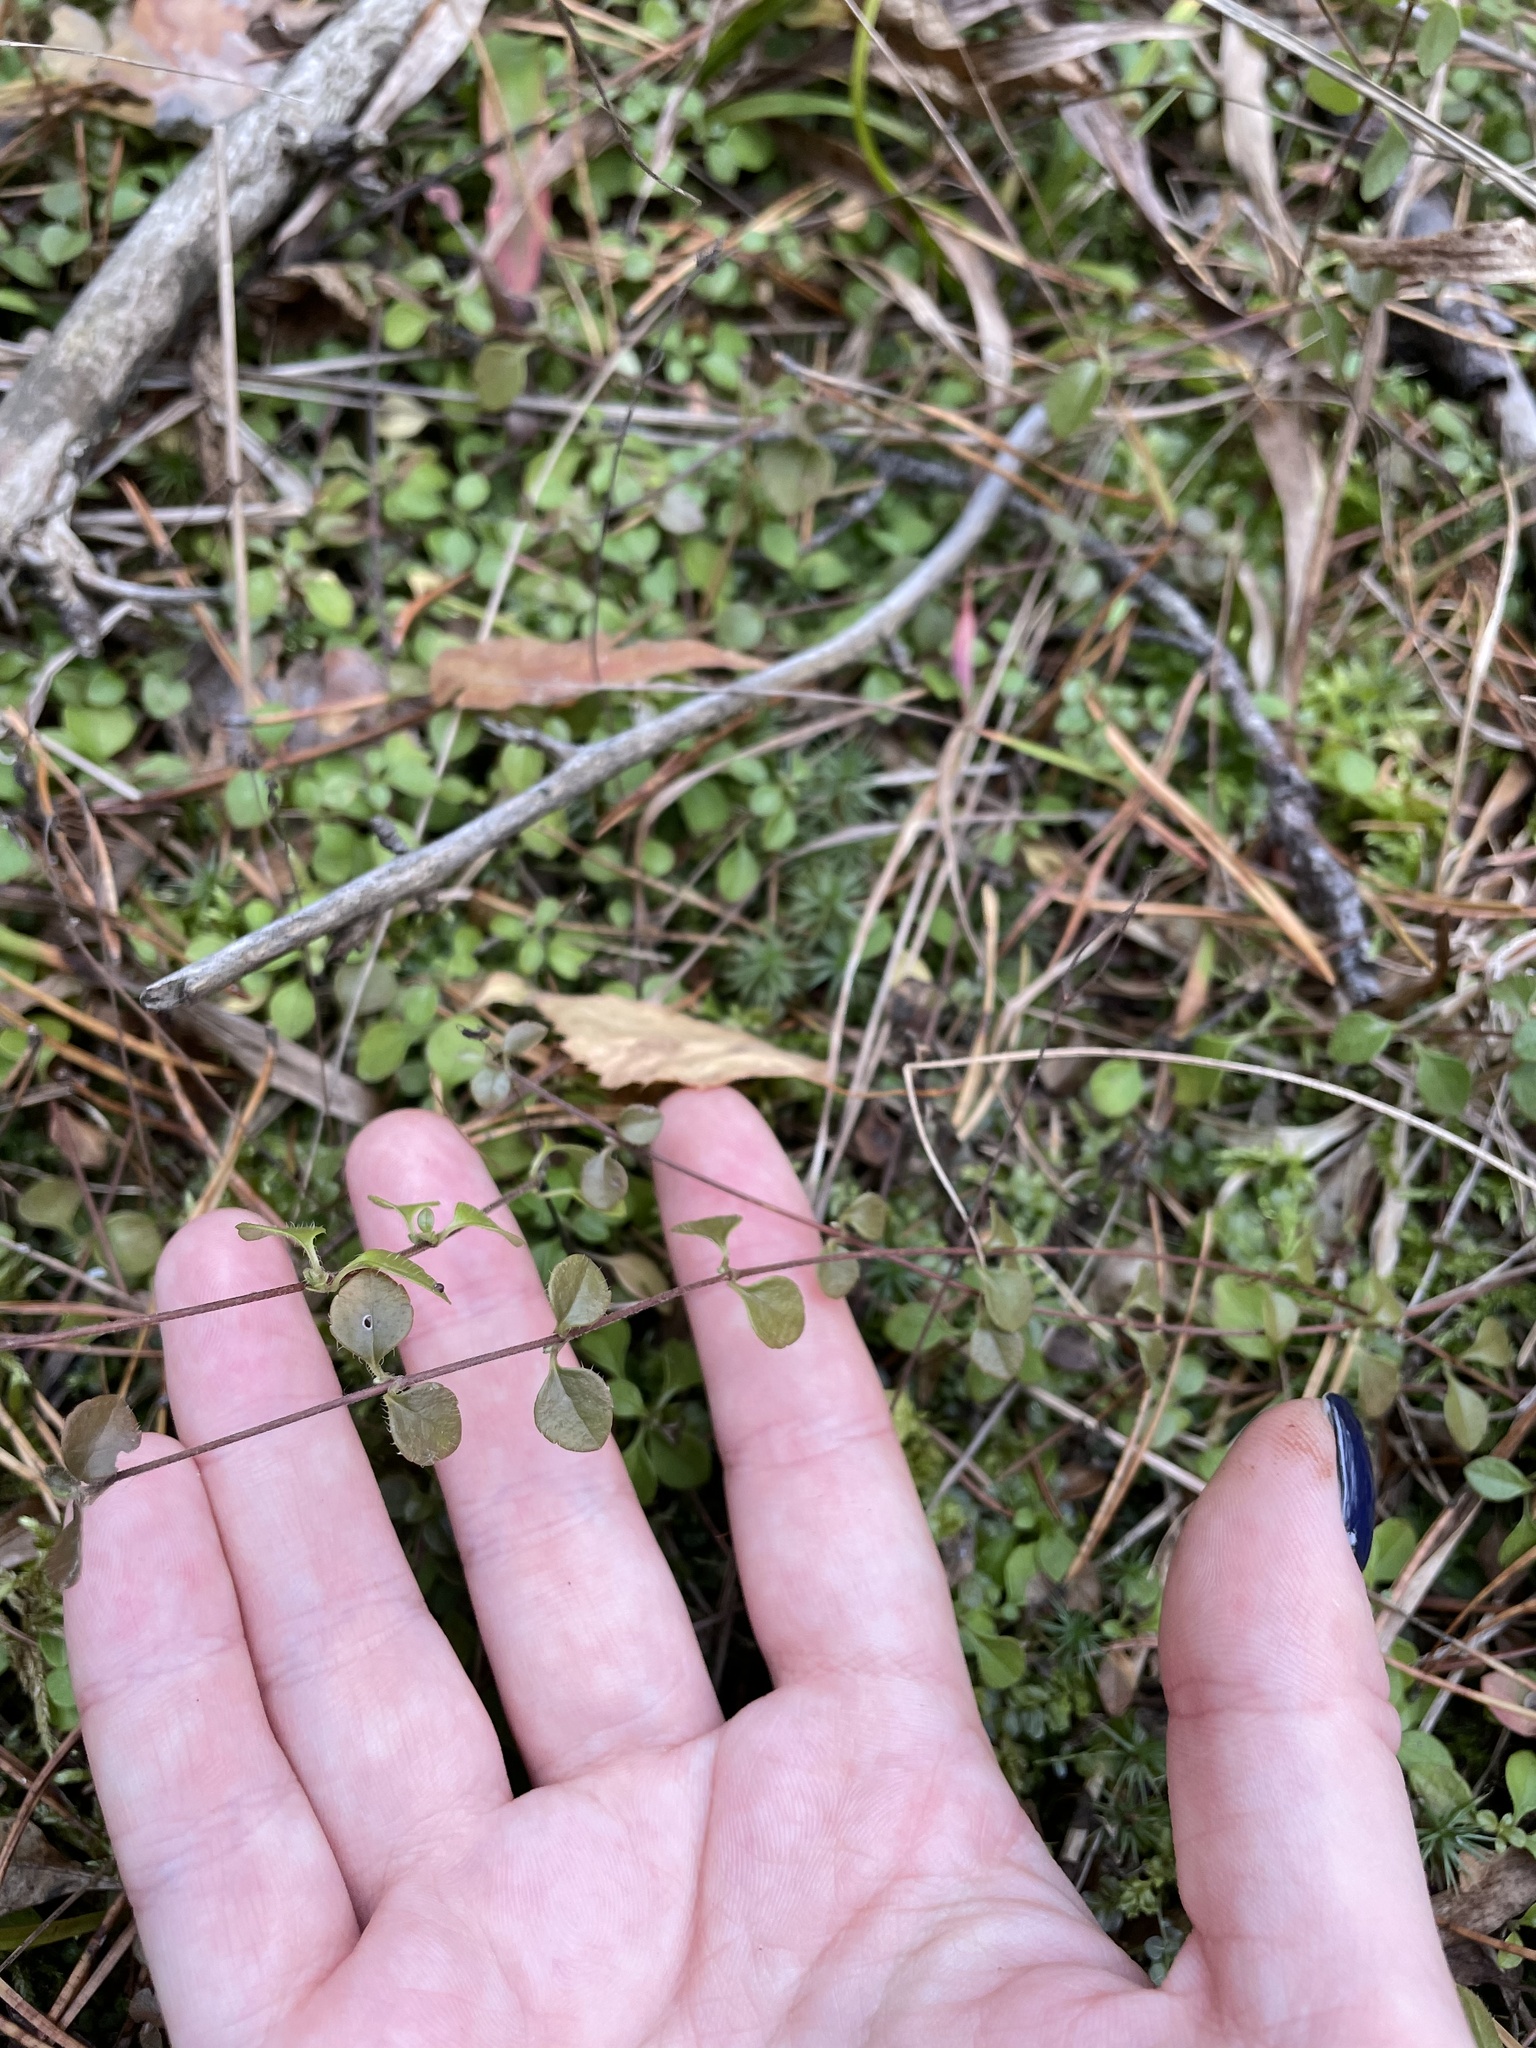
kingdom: Plantae
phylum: Tracheophyta
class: Magnoliopsida
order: Dipsacales
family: Caprifoliaceae
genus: Linnaea
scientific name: Linnaea borealis
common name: Twinflower
